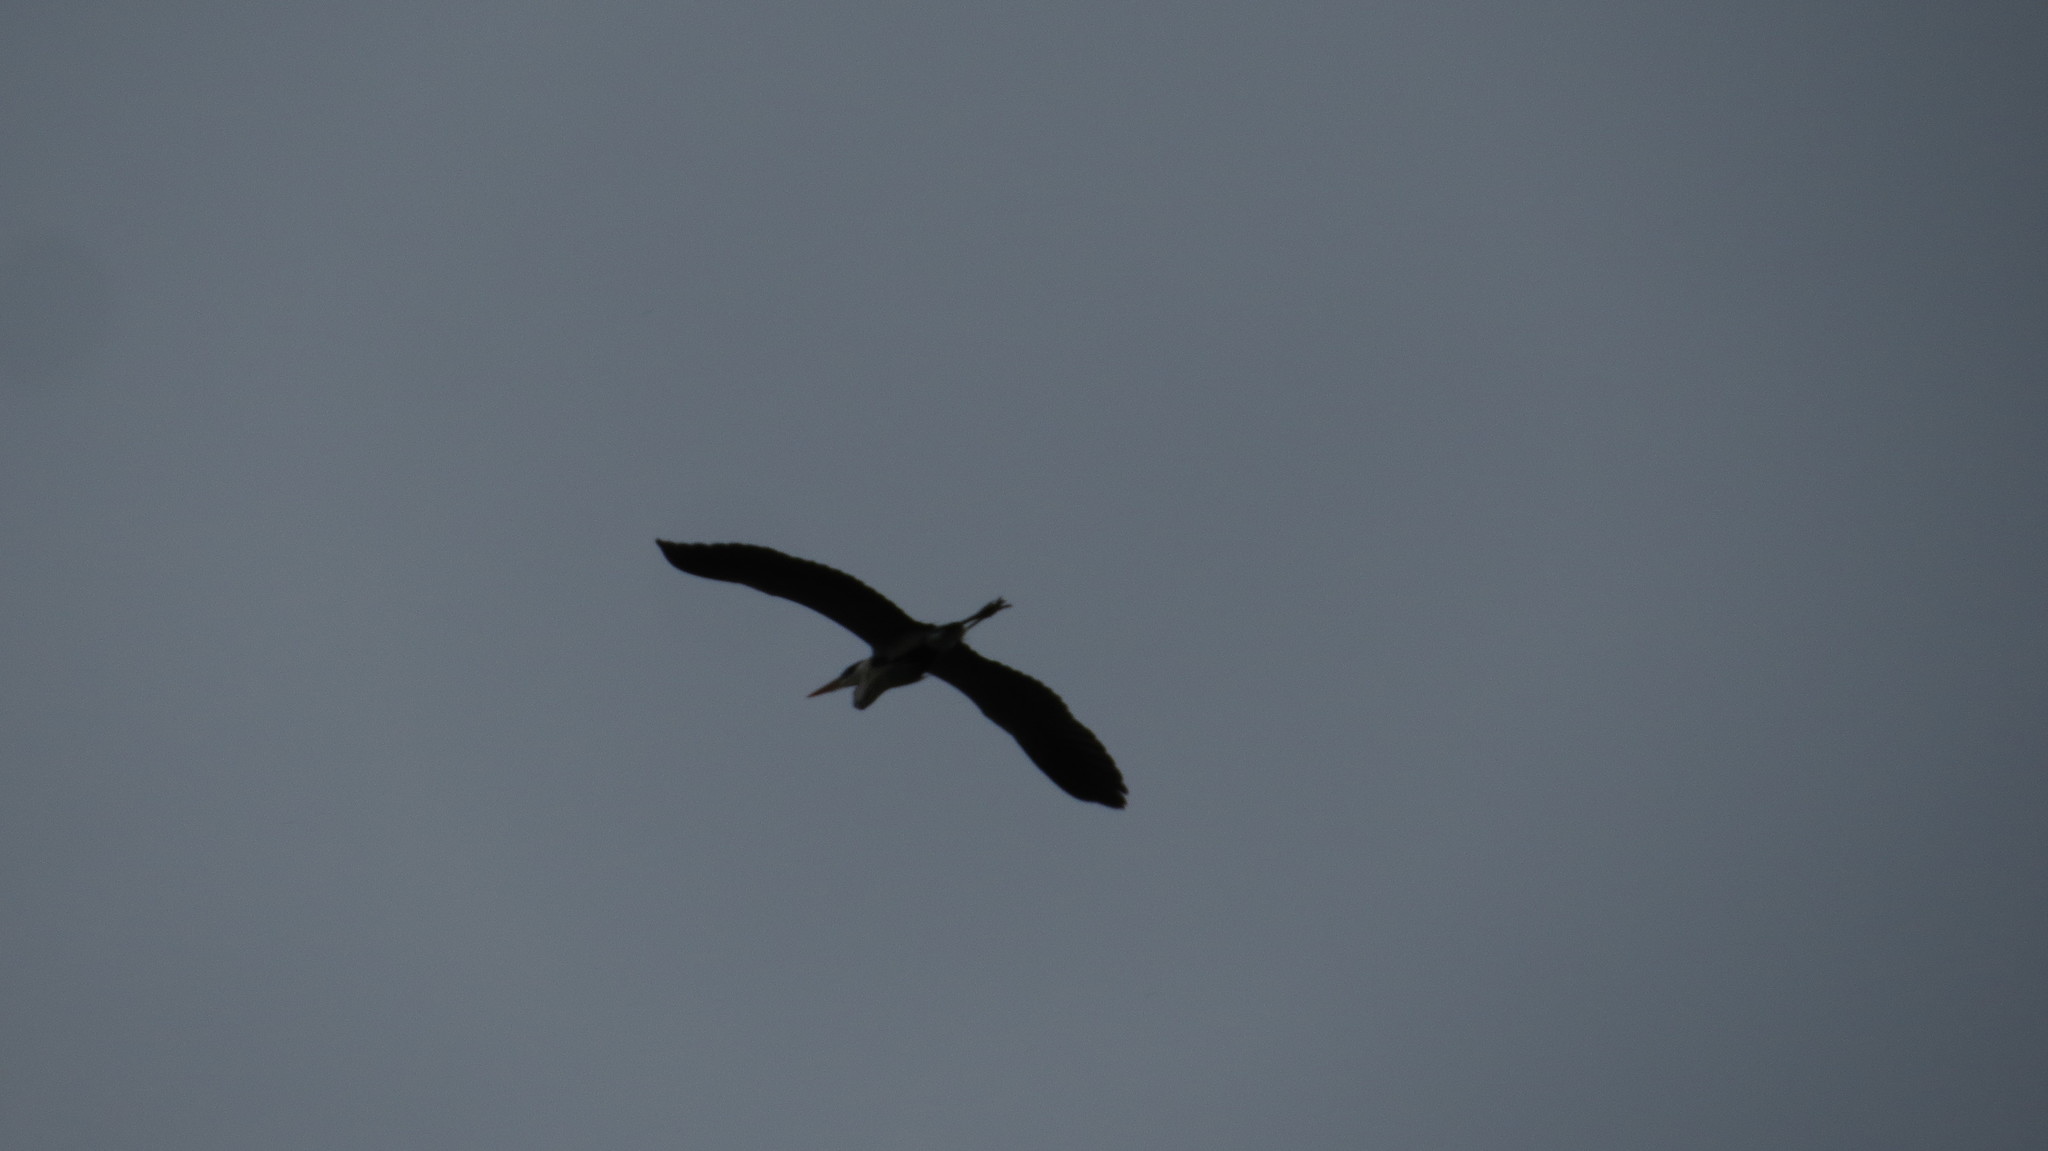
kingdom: Animalia
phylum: Chordata
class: Aves
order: Pelecaniformes
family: Ardeidae
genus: Ardea
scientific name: Ardea cocoi
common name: Cocoi heron
